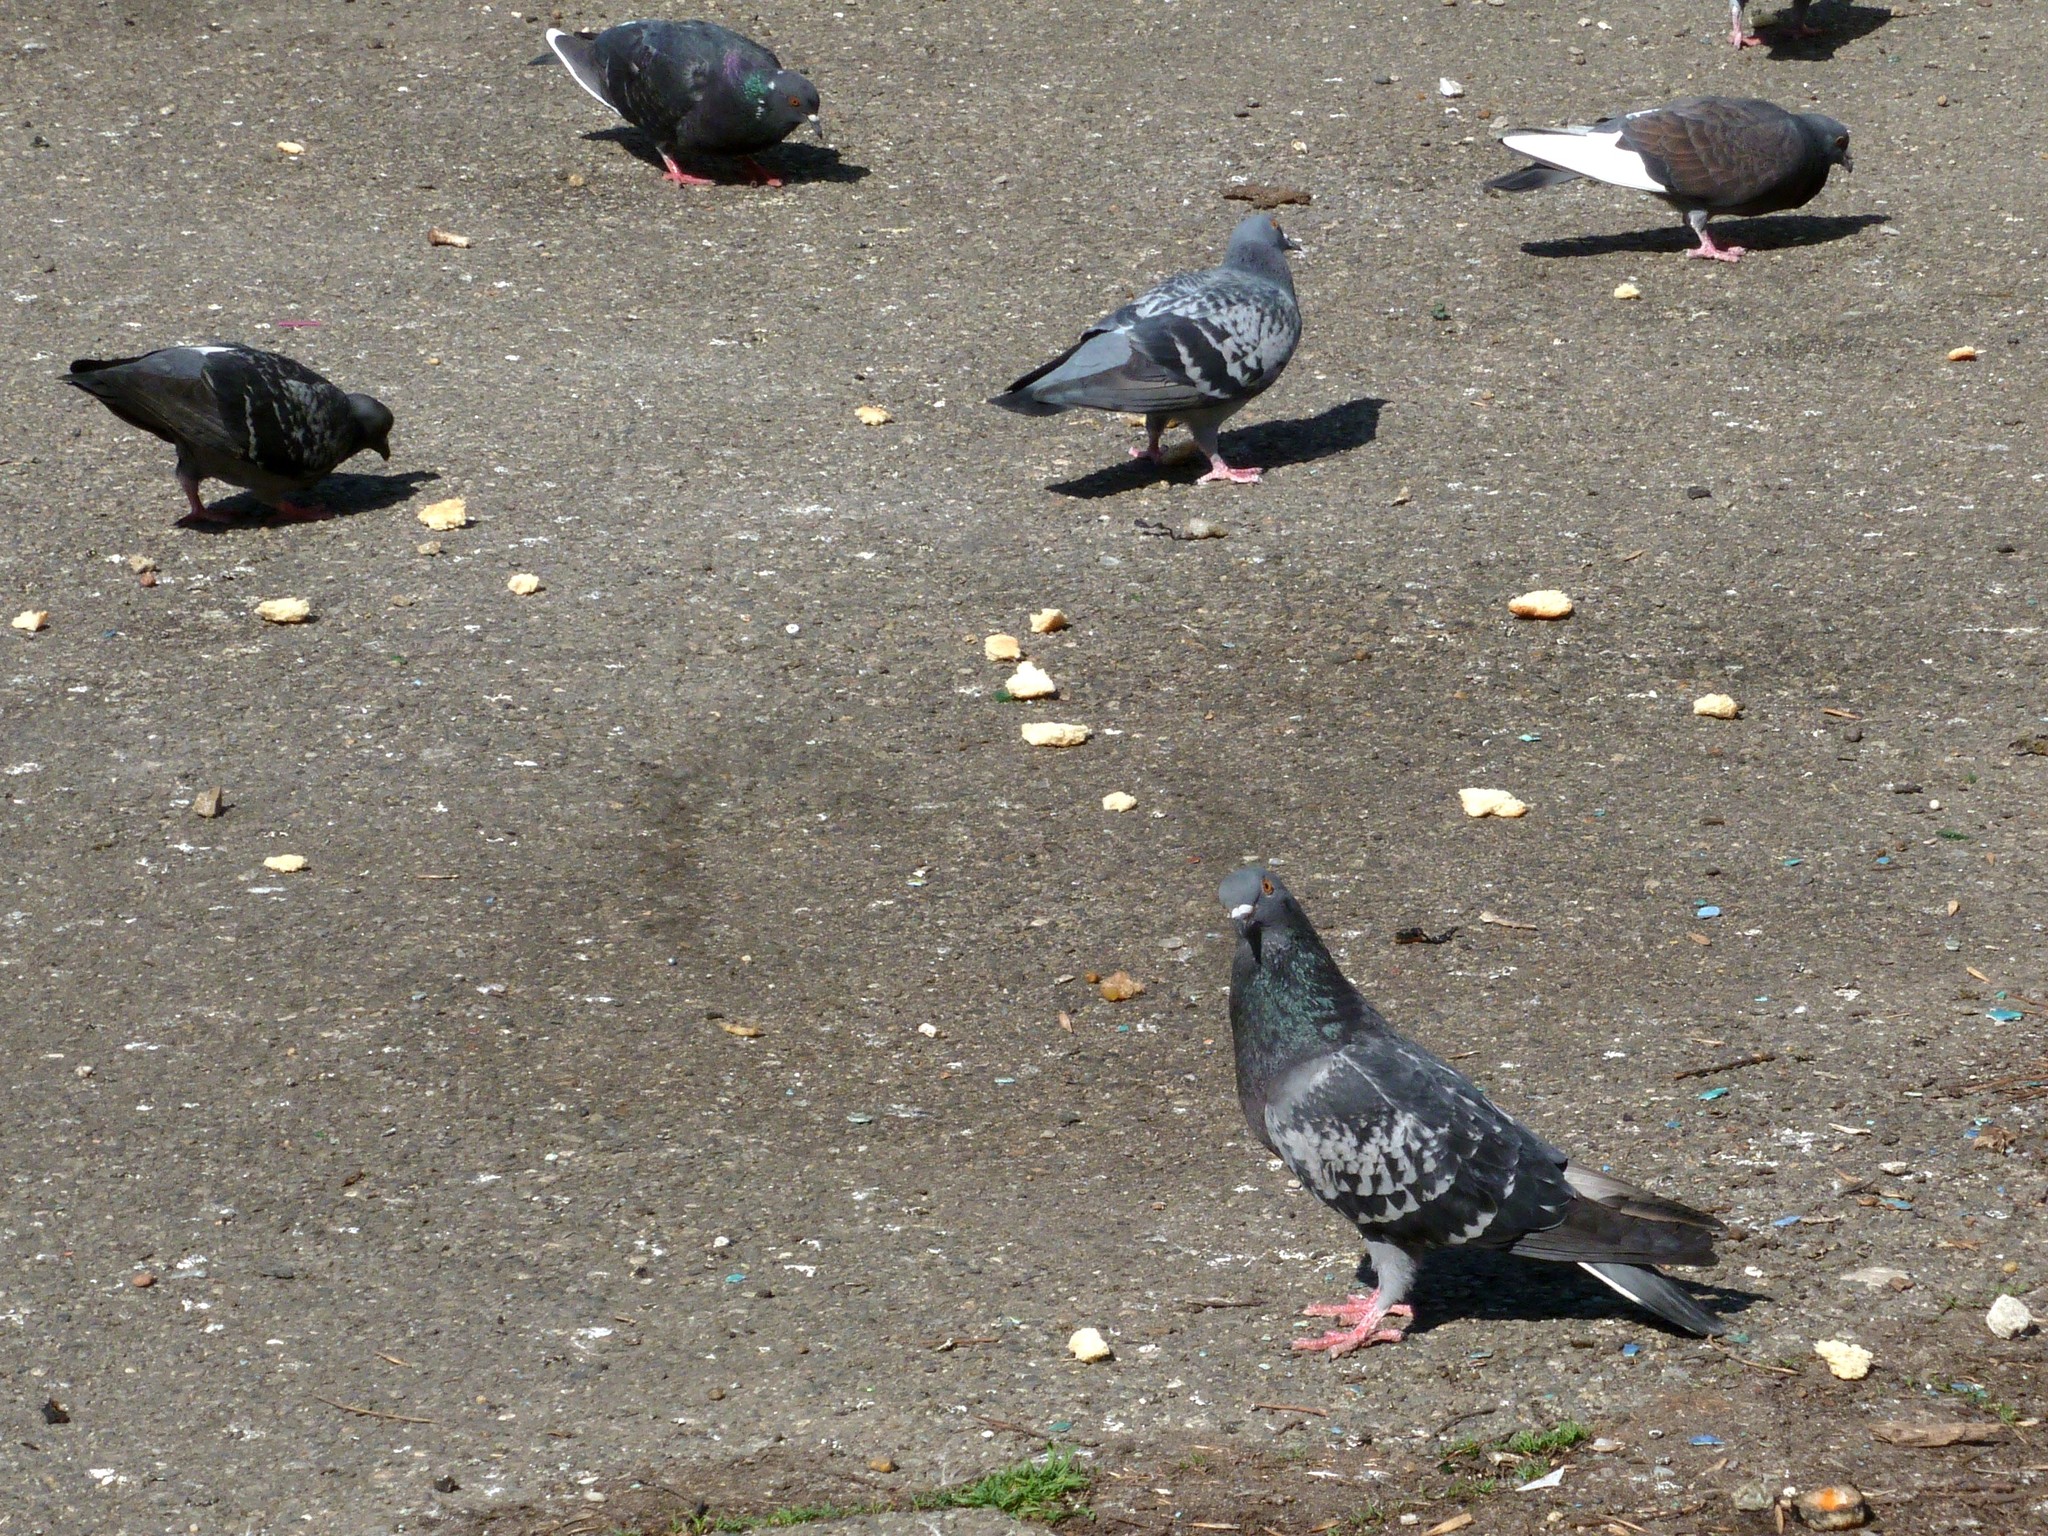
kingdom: Animalia
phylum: Chordata
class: Aves
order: Columbiformes
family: Columbidae
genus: Columba
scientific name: Columba livia
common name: Rock pigeon
